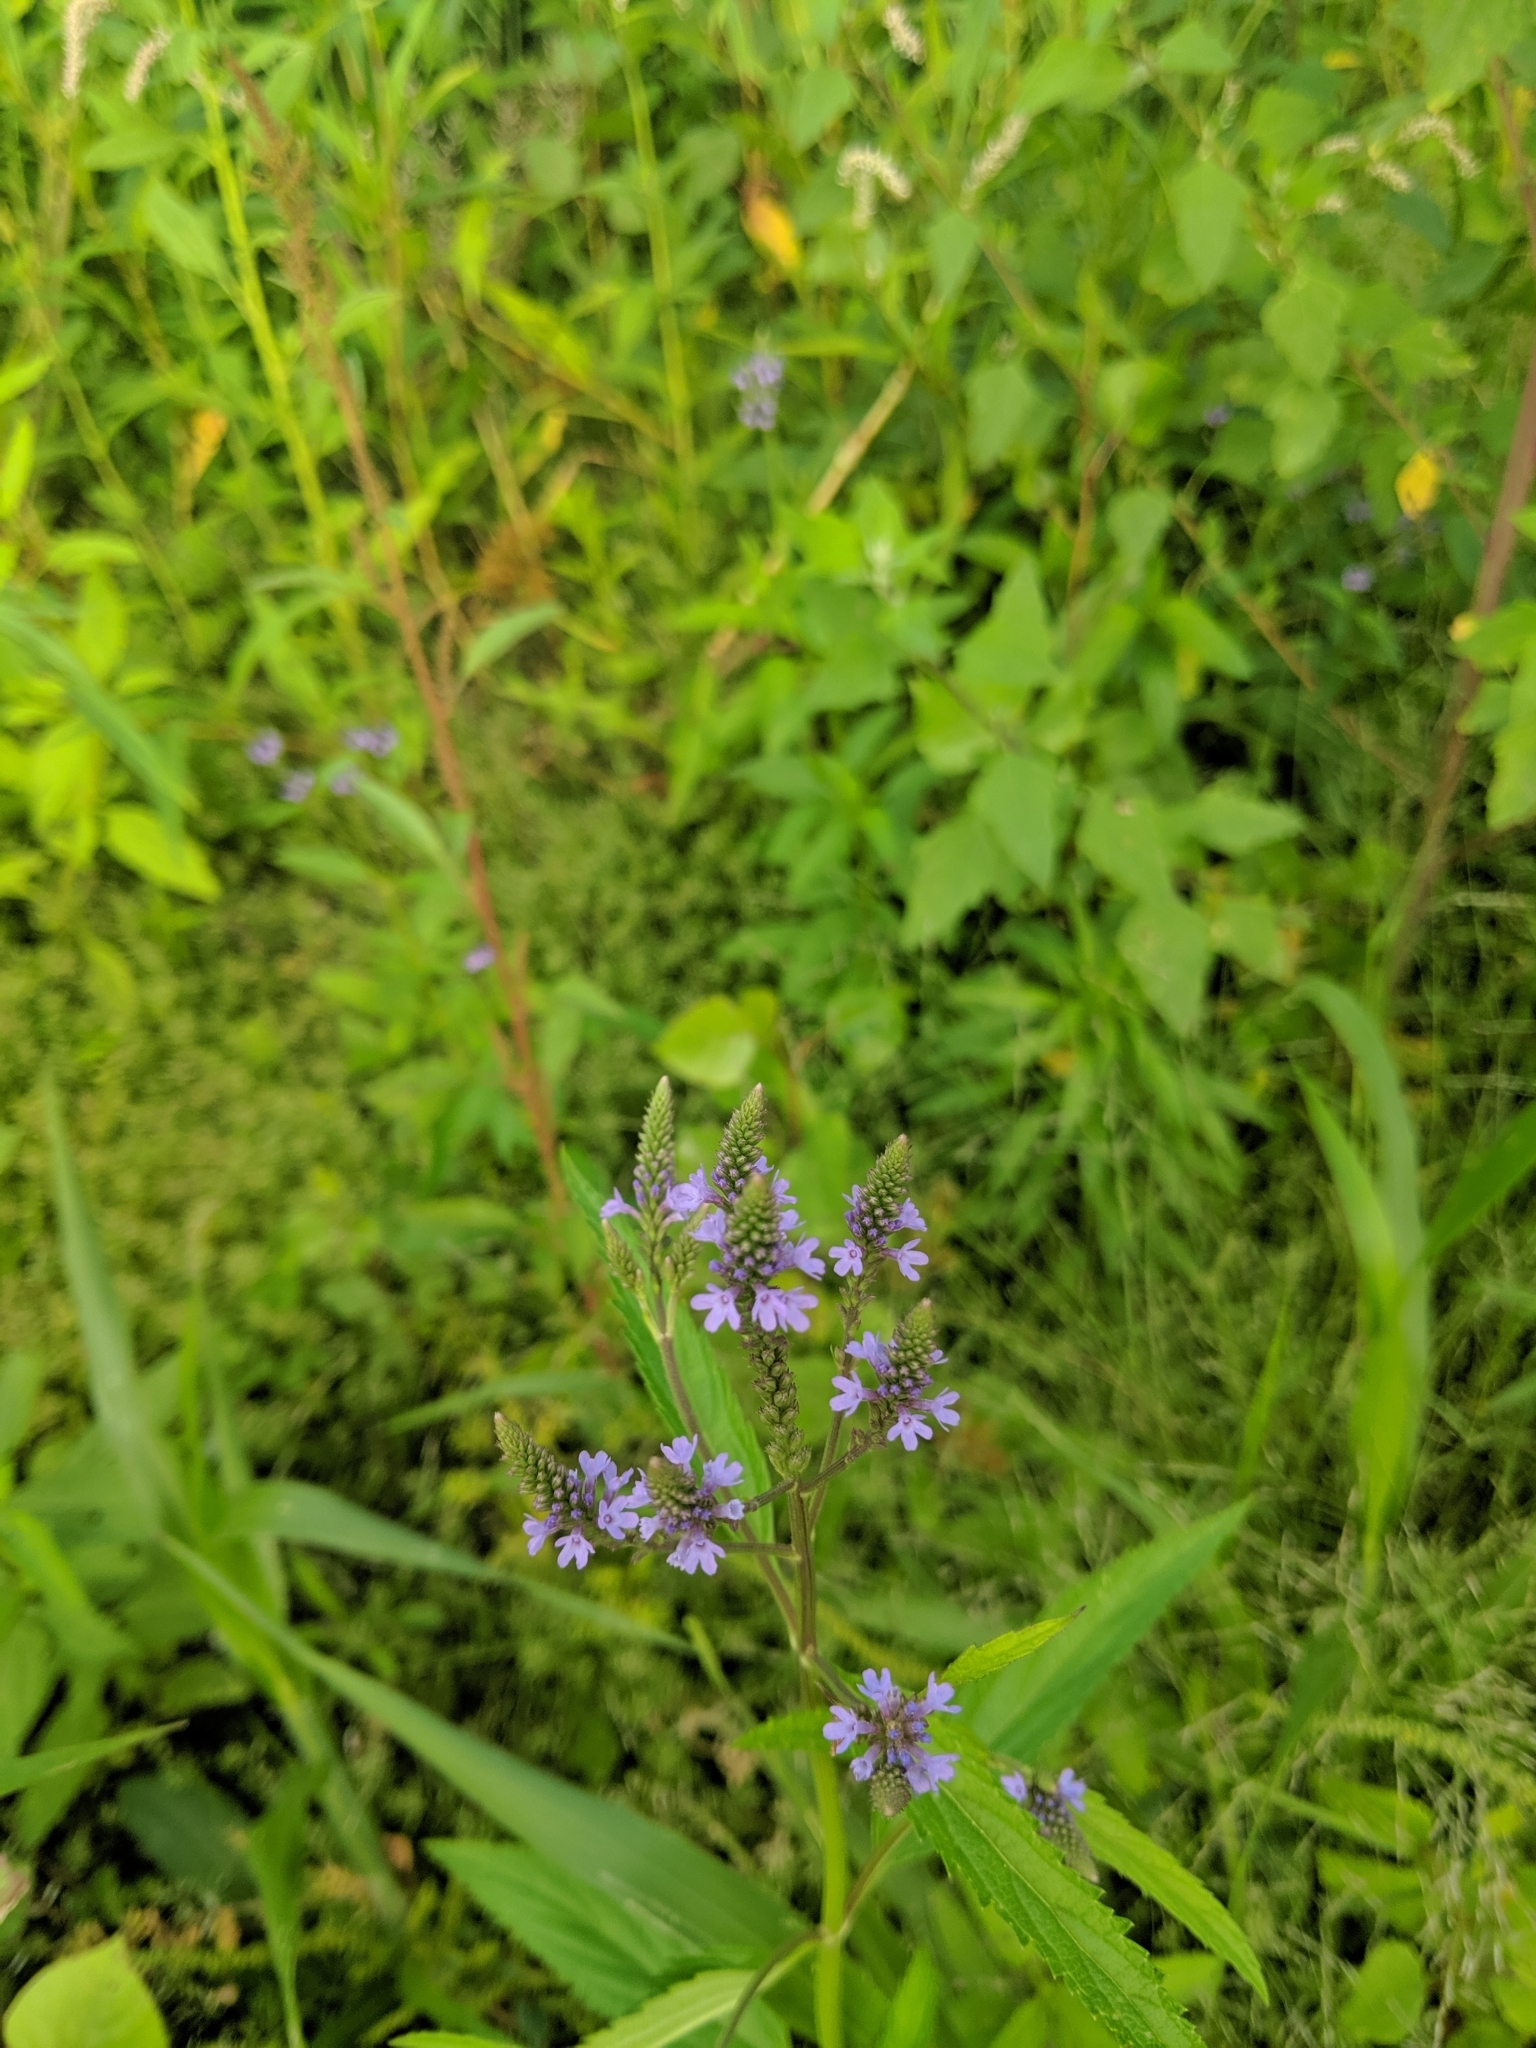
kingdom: Plantae
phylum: Tracheophyta
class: Magnoliopsida
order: Lamiales
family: Verbenaceae
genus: Verbena
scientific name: Verbena hastata
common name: American blue vervain
